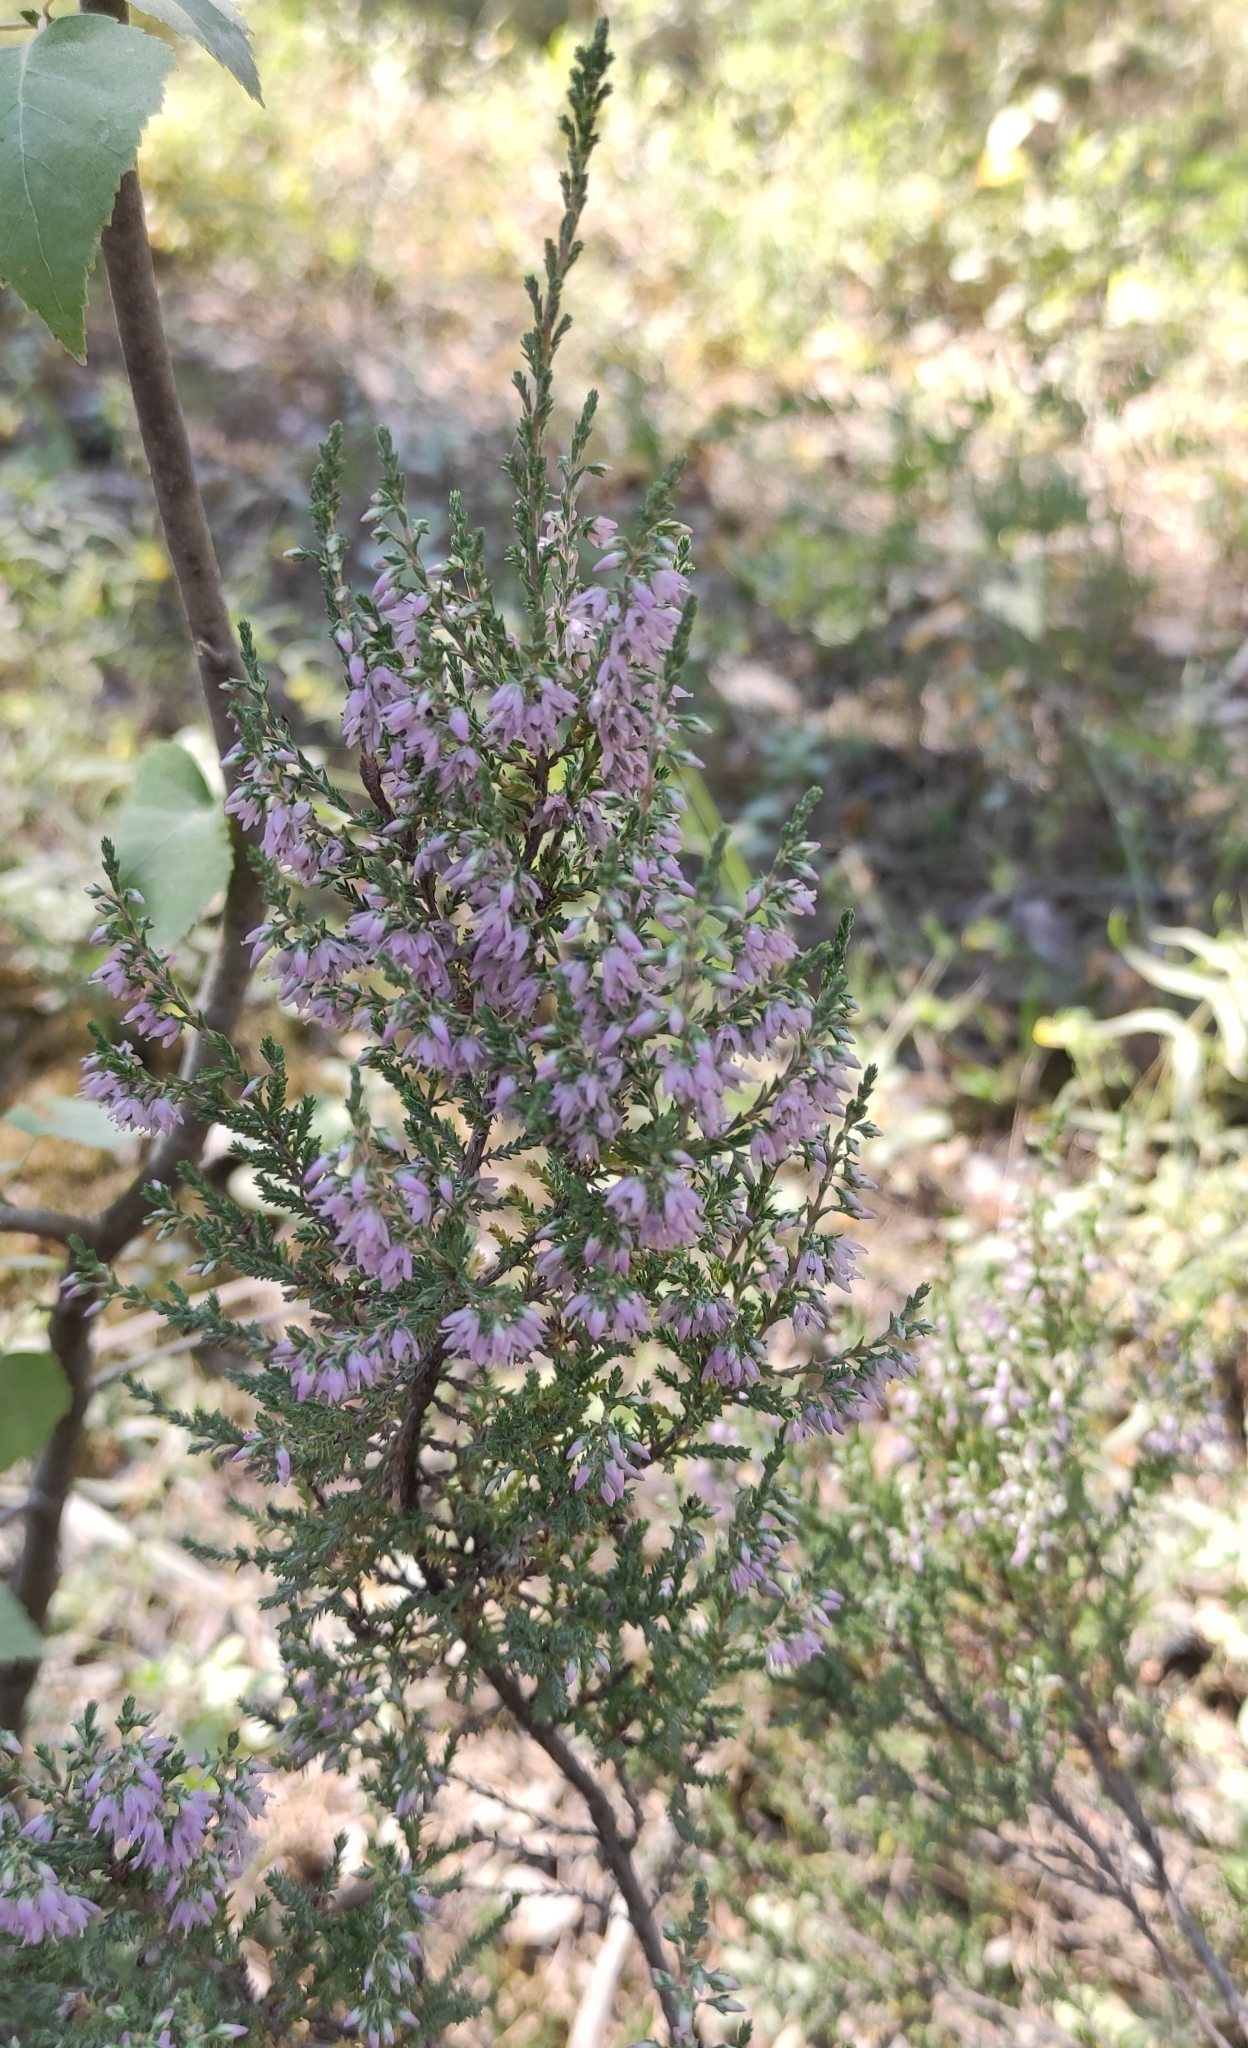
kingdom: Plantae
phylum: Tracheophyta
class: Magnoliopsida
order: Ericales
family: Ericaceae
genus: Calluna
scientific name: Calluna vulgaris
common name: Heather
